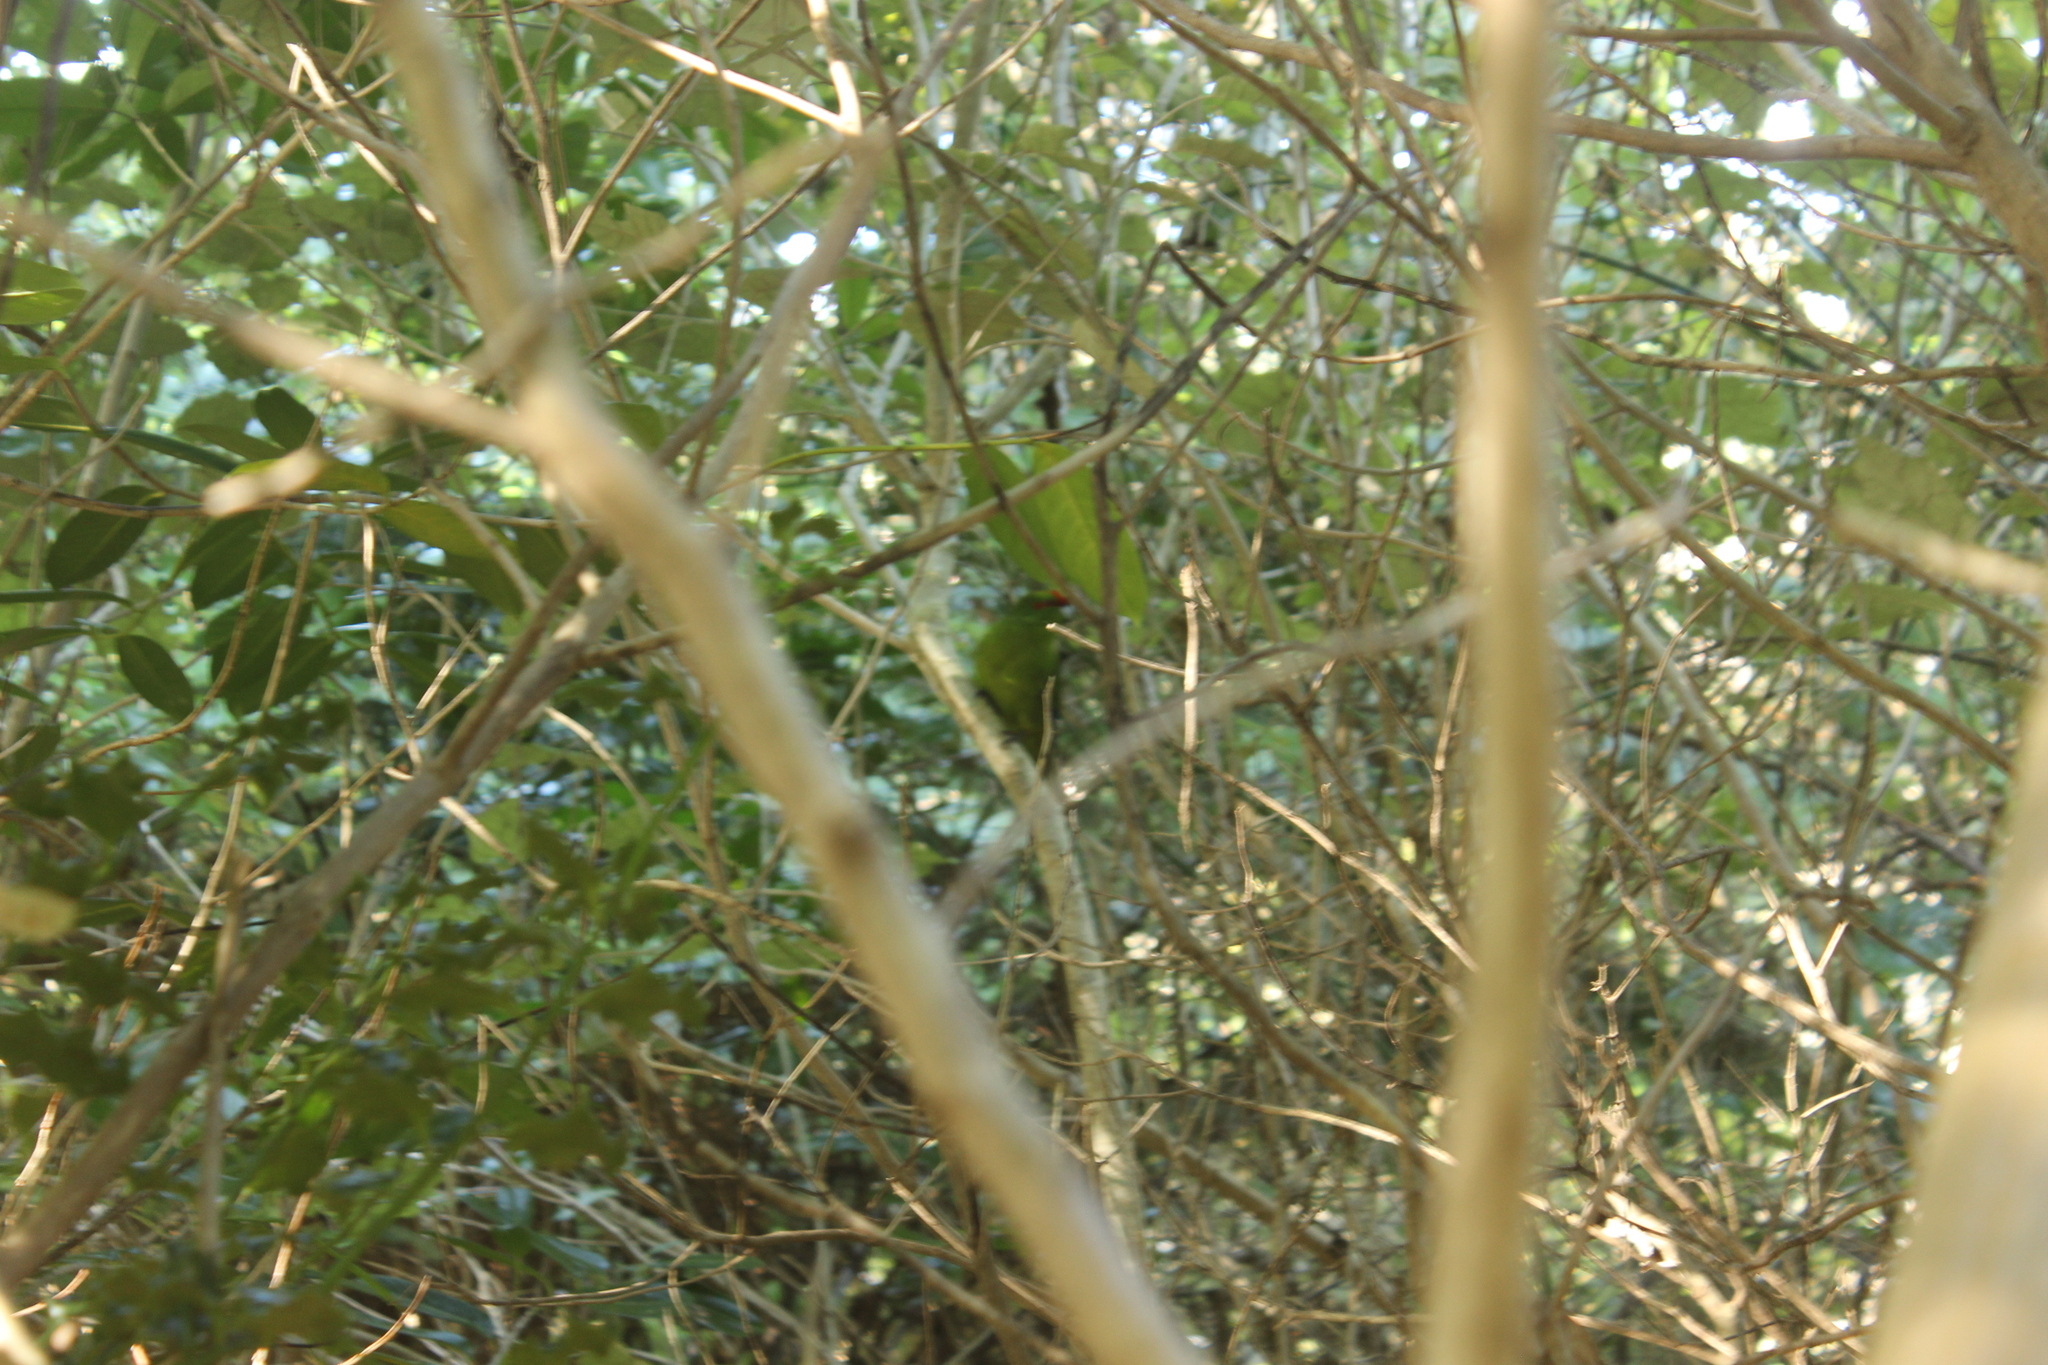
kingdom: Animalia
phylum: Chordata
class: Aves
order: Psittaciformes
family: Psittacidae
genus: Cyanoramphus
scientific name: Cyanoramphus novaezelandiae
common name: Red-fronted parakeet
